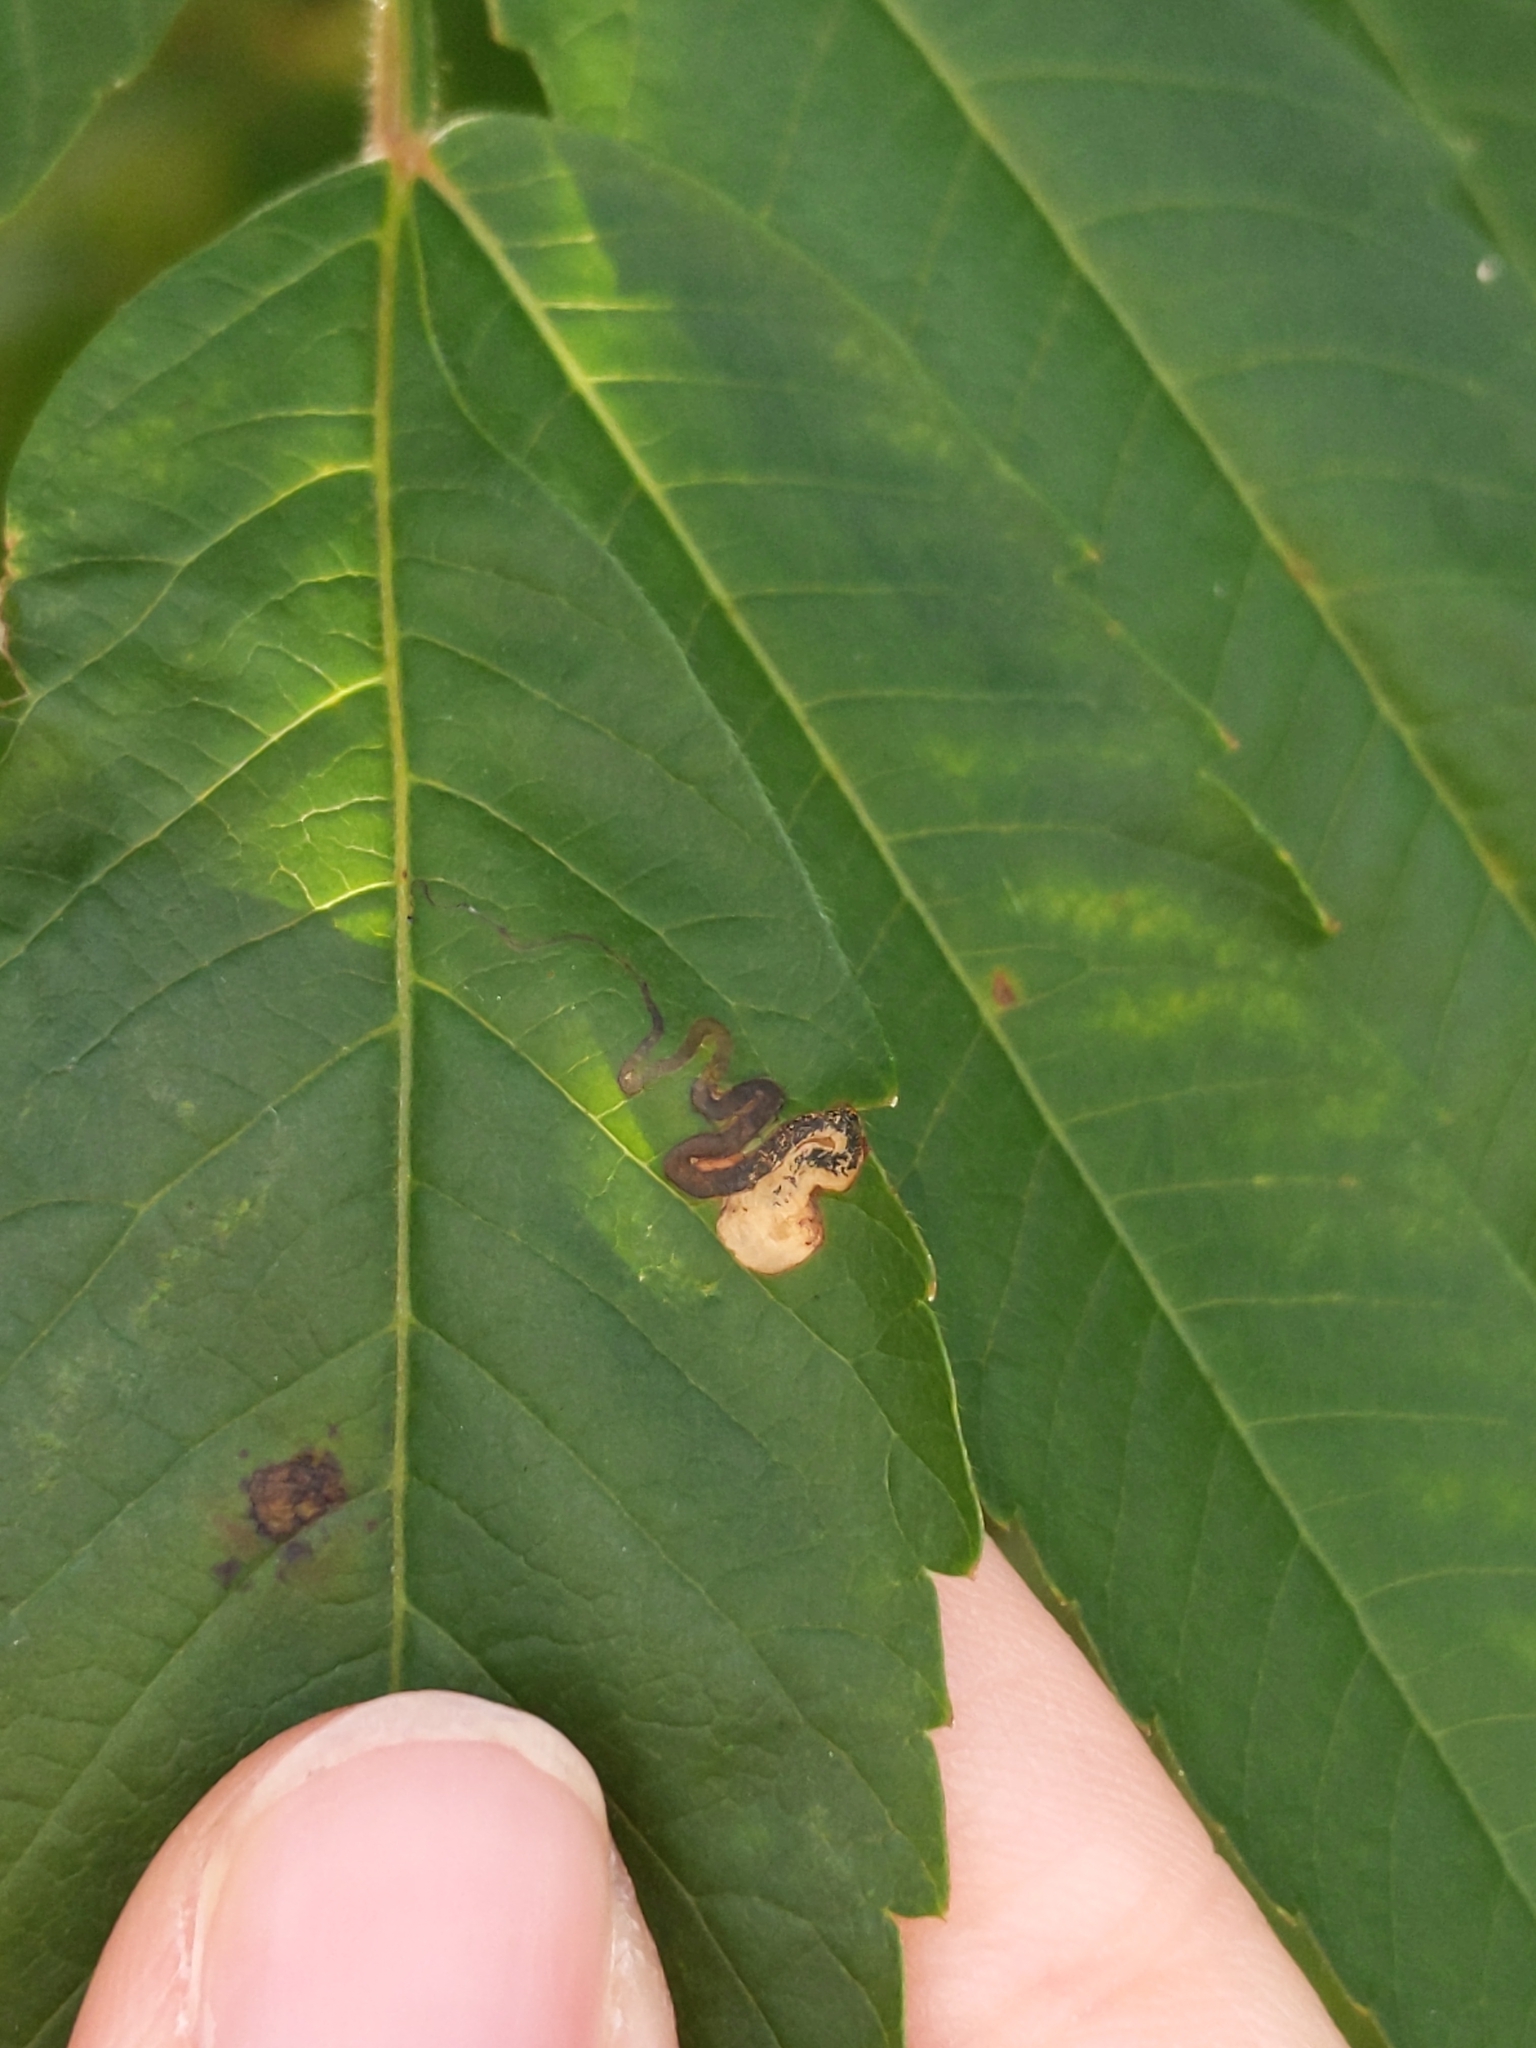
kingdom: Animalia
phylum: Arthropoda
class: Insecta
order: Lepidoptera
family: Nepticulidae
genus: Stigmella
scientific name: Stigmella intermedia
